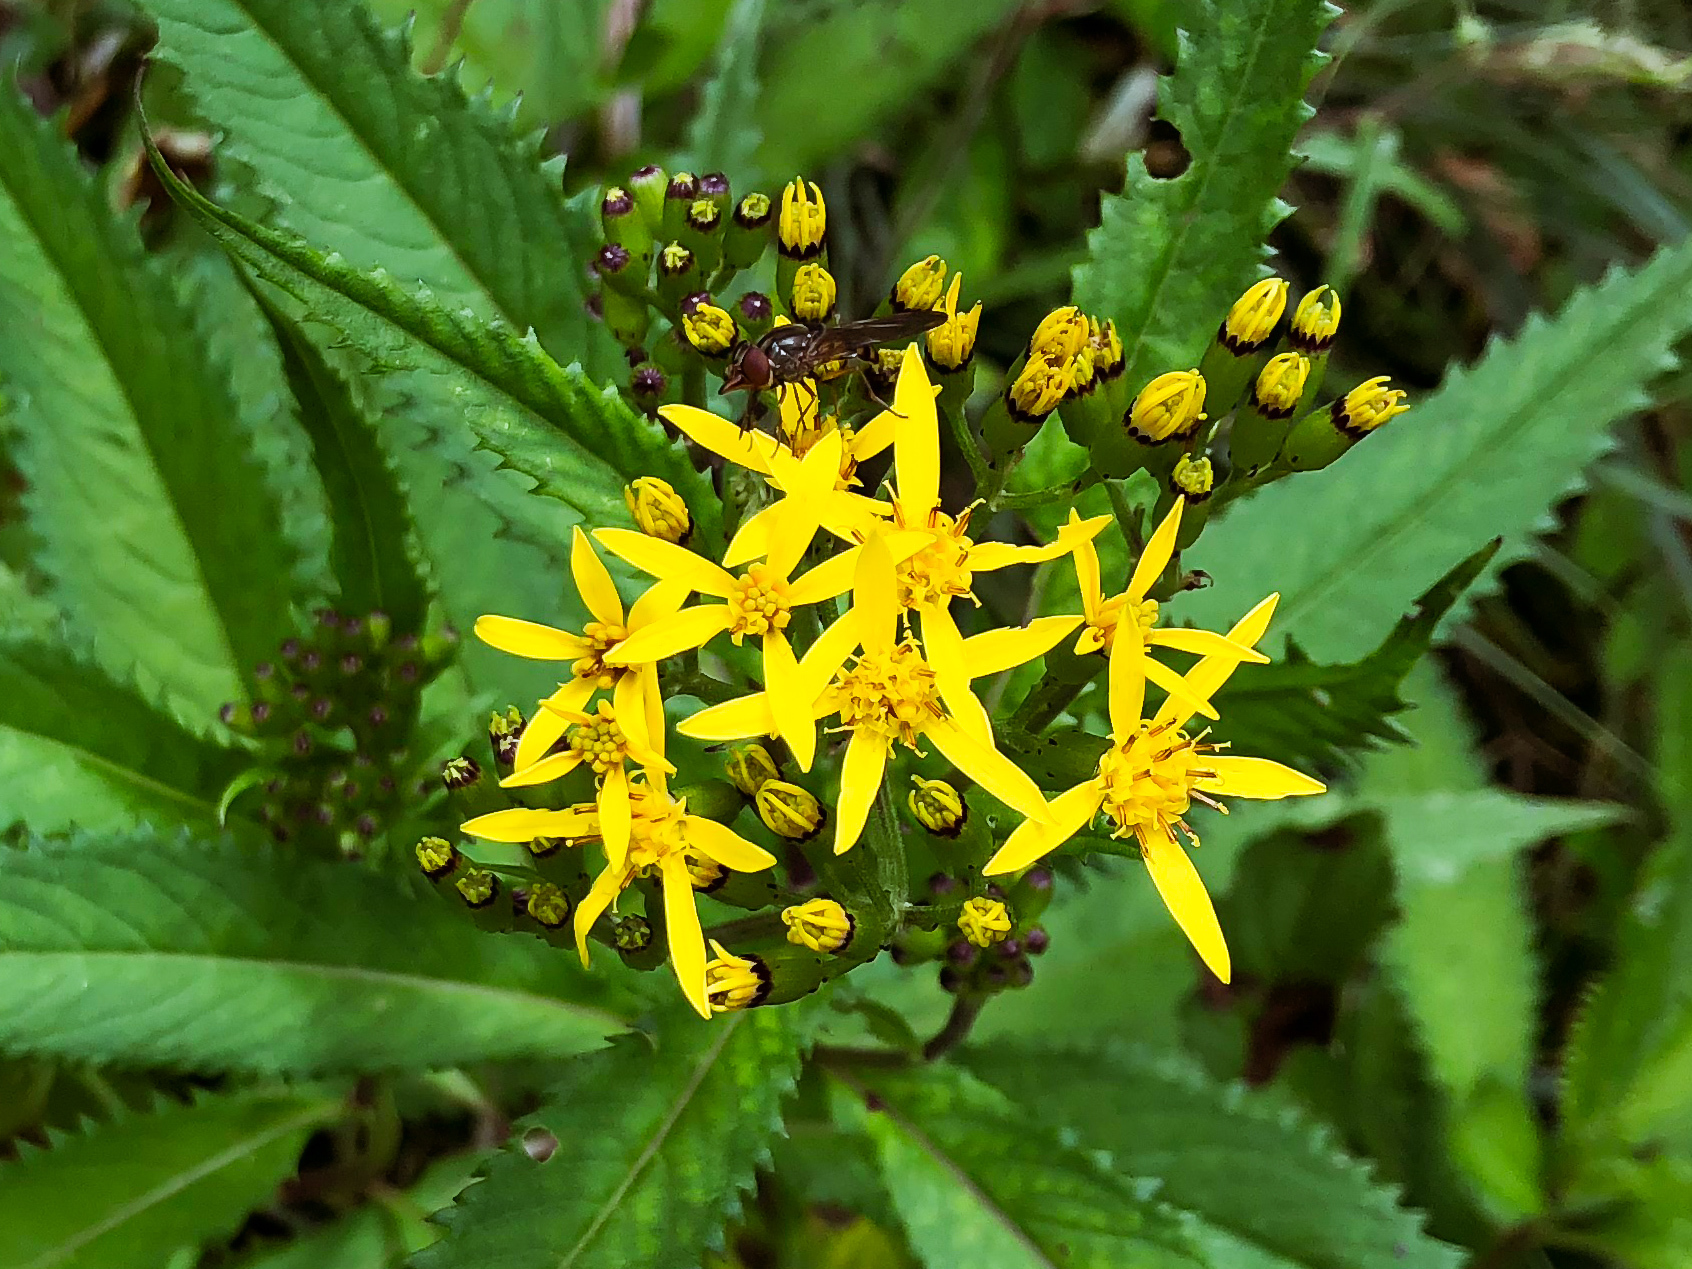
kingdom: Plantae
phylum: Tracheophyta
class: Magnoliopsida
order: Asterales
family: Asteraceae
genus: Jacobaea
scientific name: Jacobaea morrisonensis
